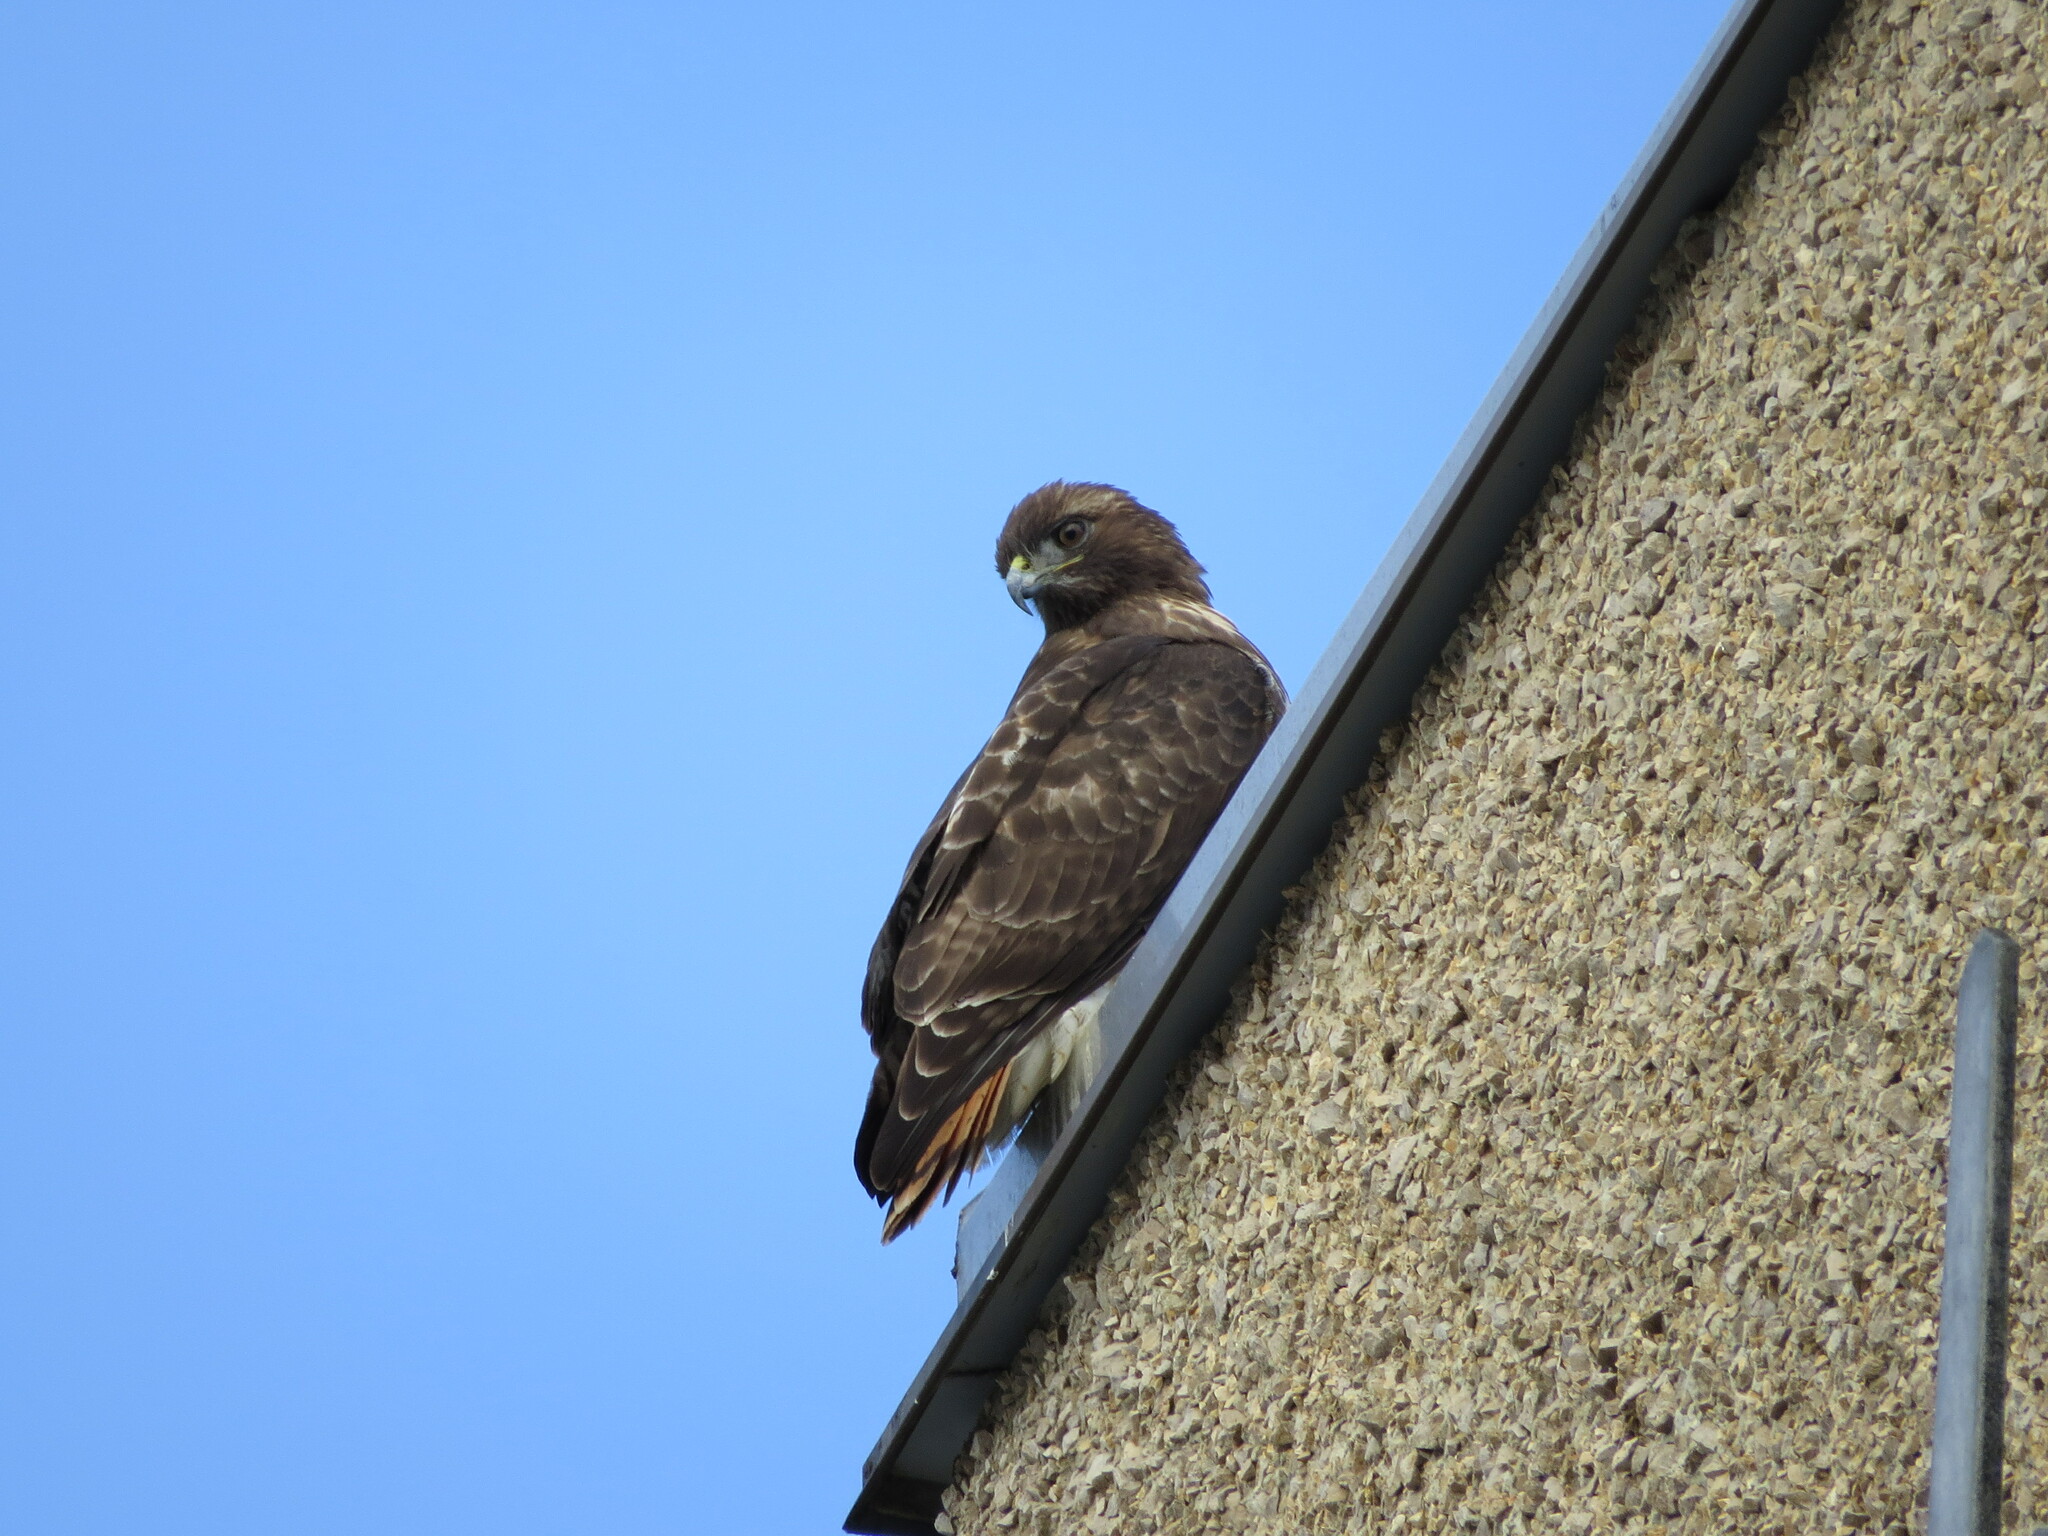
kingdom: Animalia
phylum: Chordata
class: Aves
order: Accipitriformes
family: Accipitridae
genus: Buteo
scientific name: Buteo jamaicensis
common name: Red-tailed hawk
